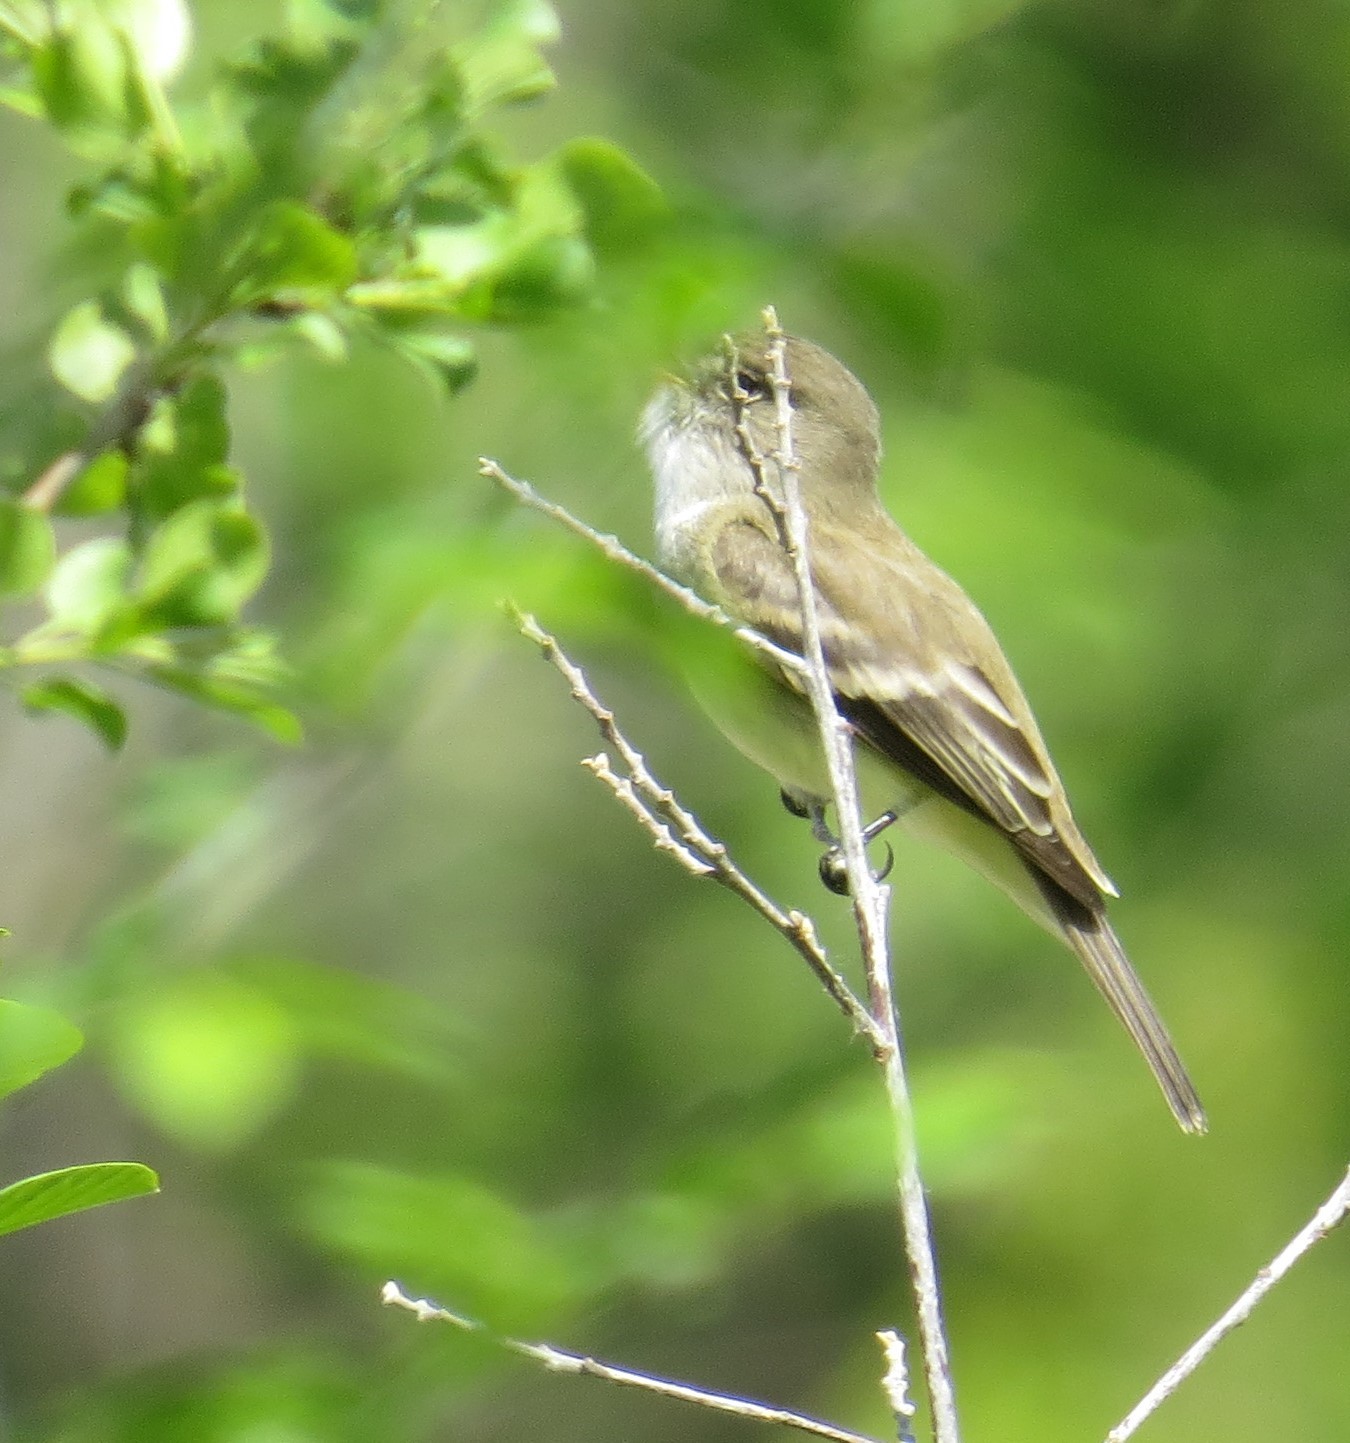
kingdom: Animalia
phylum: Chordata
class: Aves
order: Passeriformes
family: Tyrannidae
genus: Empidonax
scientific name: Empidonax traillii
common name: Willow flycatcher
